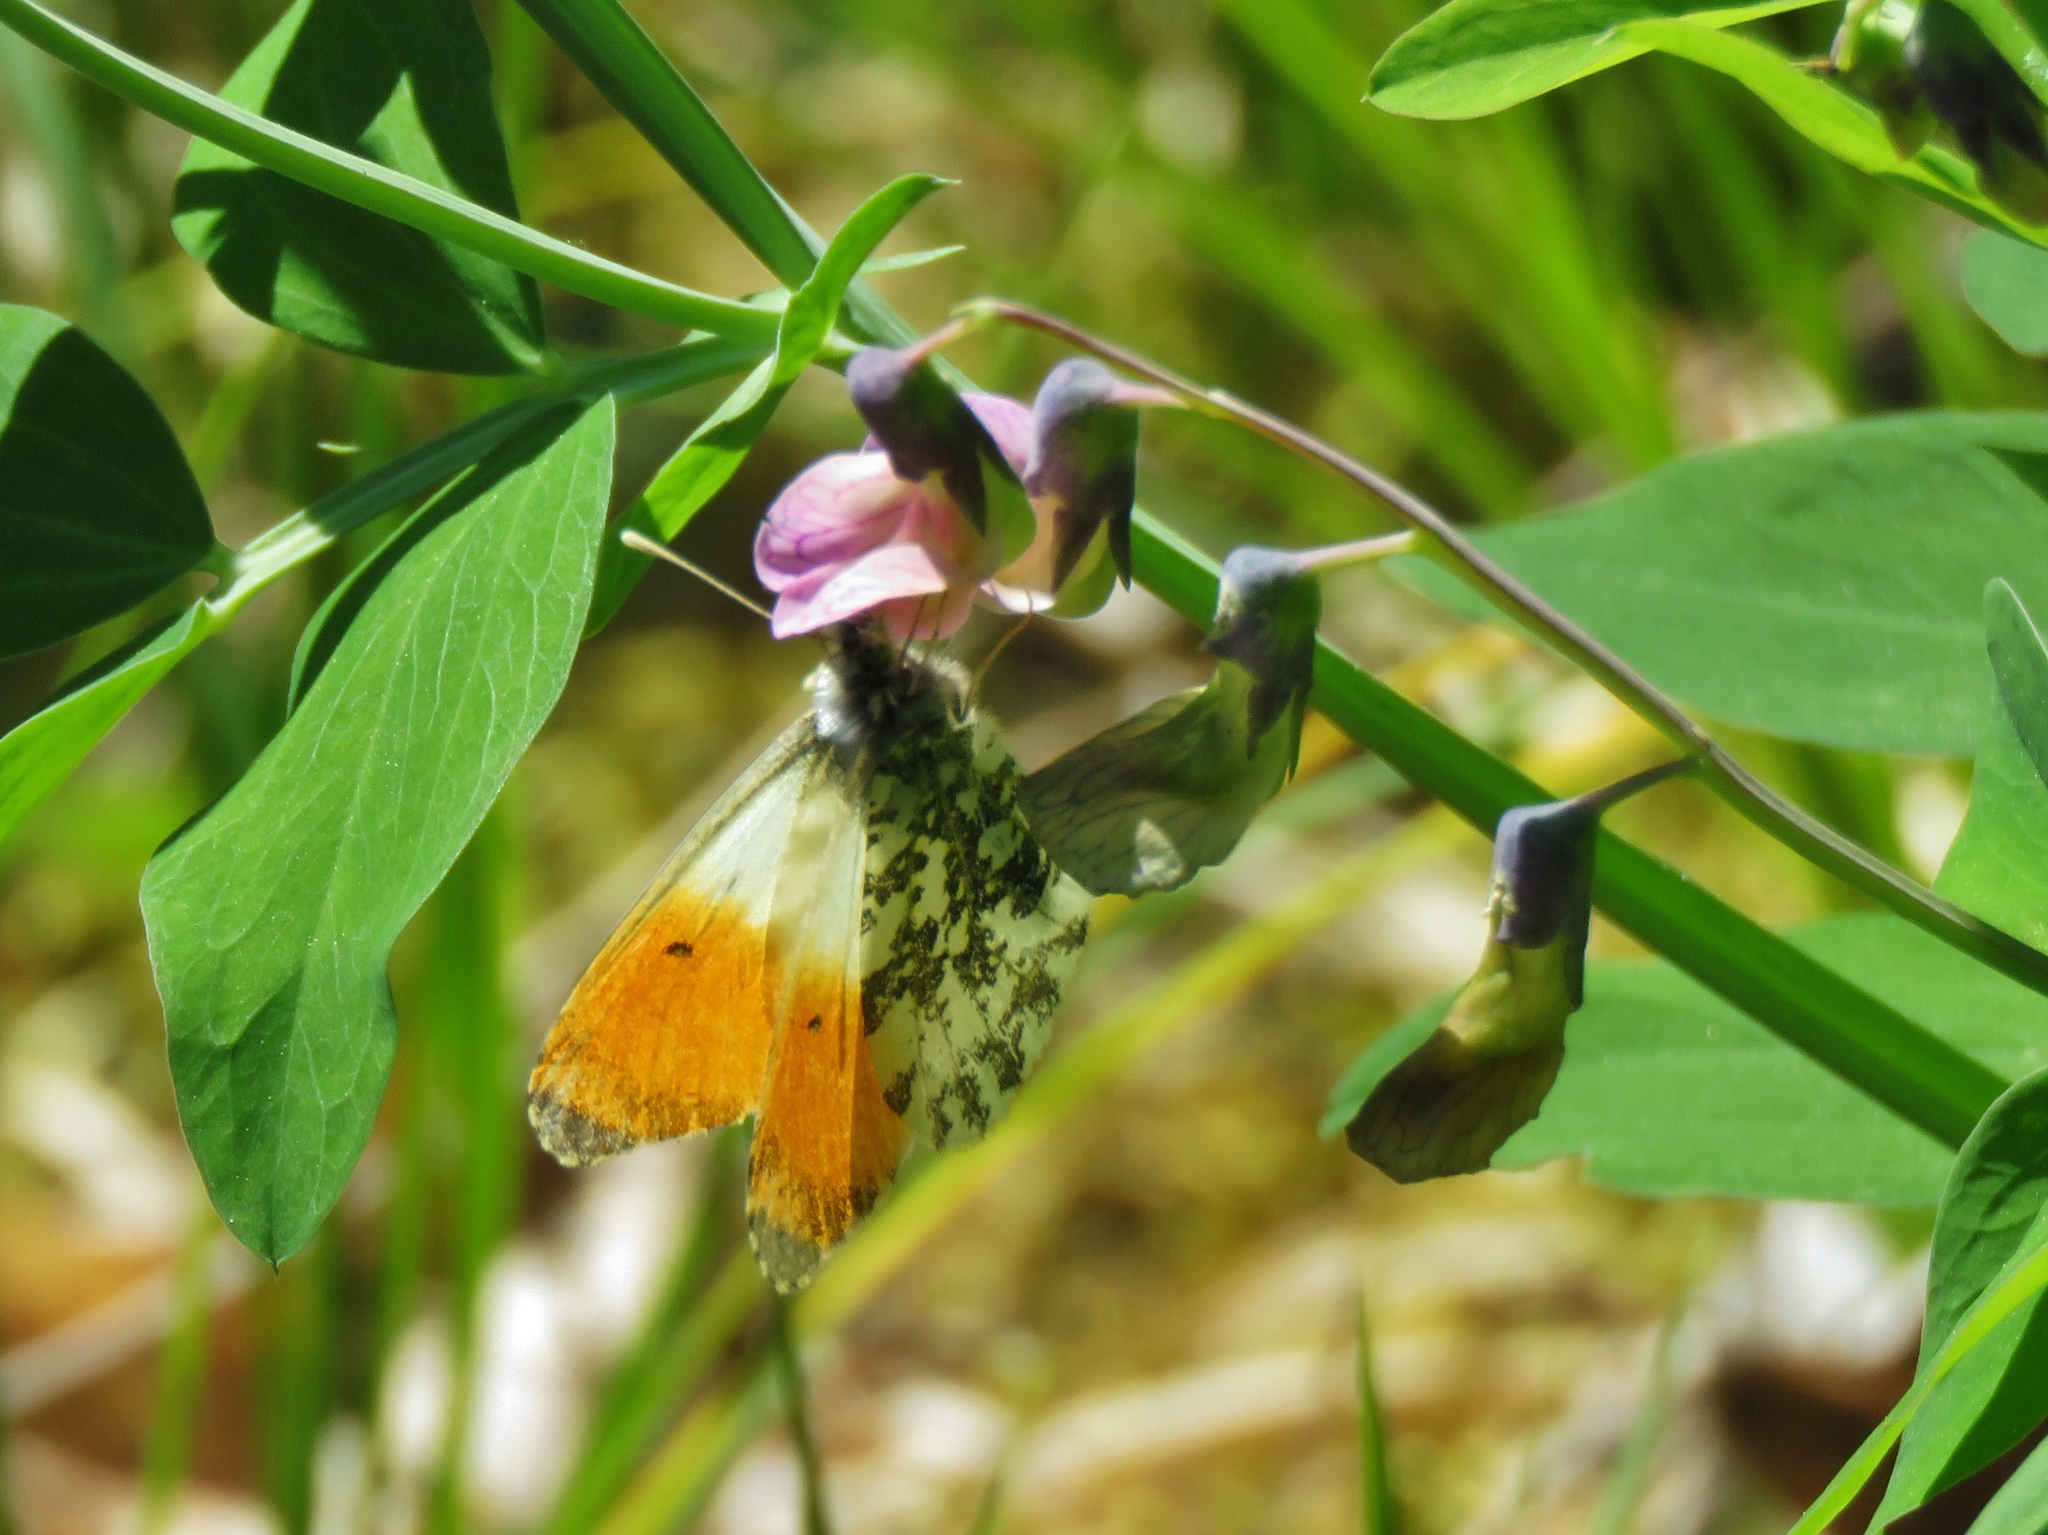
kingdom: Animalia
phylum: Arthropoda
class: Insecta
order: Lepidoptera
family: Pieridae
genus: Anthocharis
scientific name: Anthocharis cardamines
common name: Orange-tip
